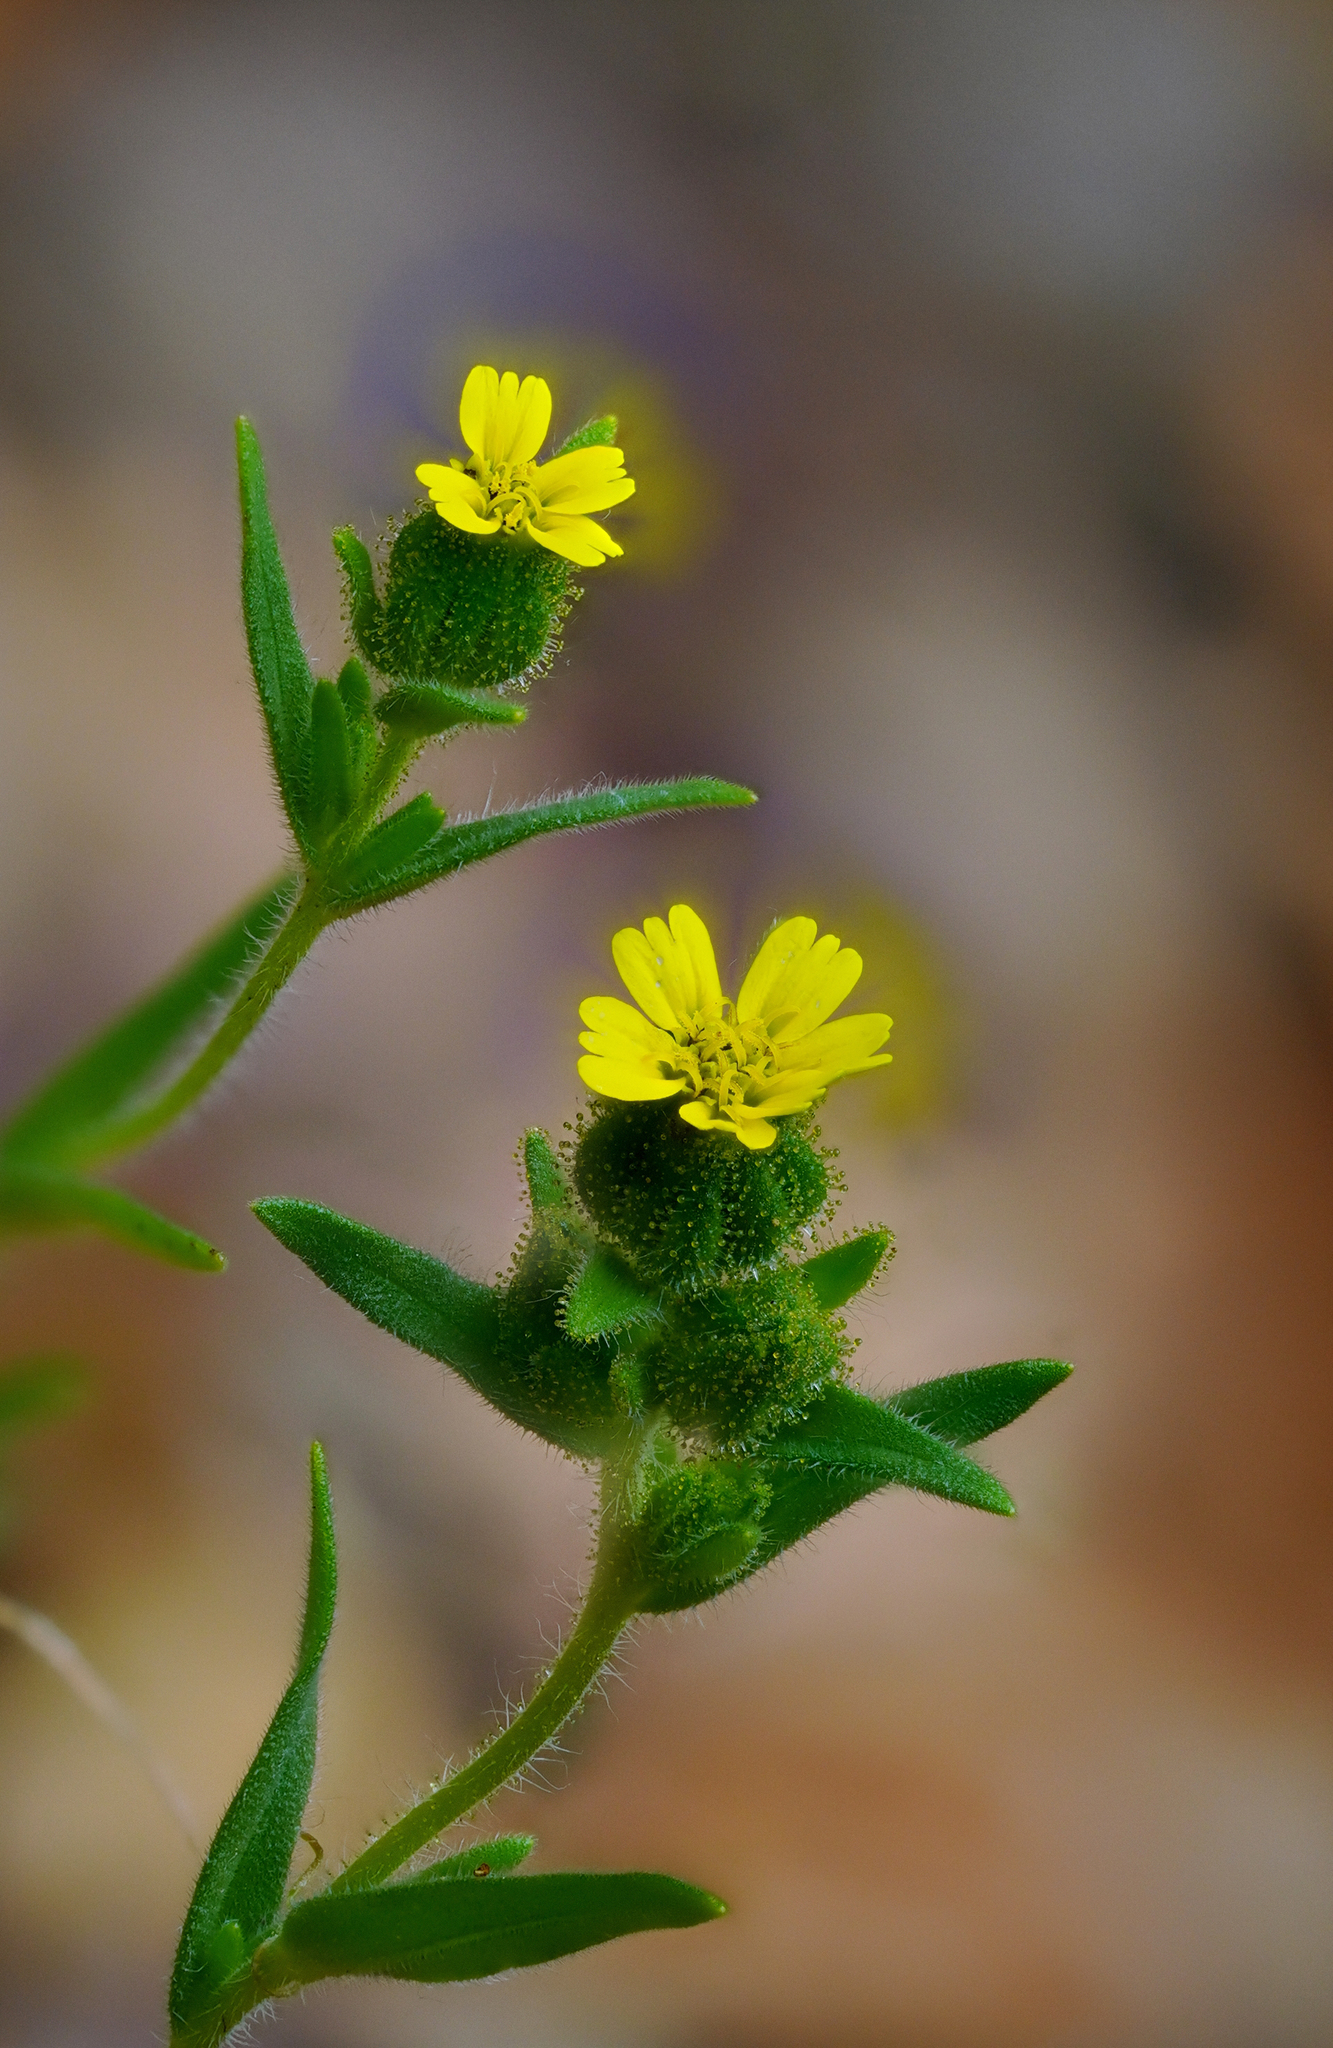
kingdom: Plantae
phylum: Tracheophyta
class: Magnoliopsida
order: Asterales
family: Asteraceae
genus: Madia
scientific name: Madia gracilis
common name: Grassy tarweed
